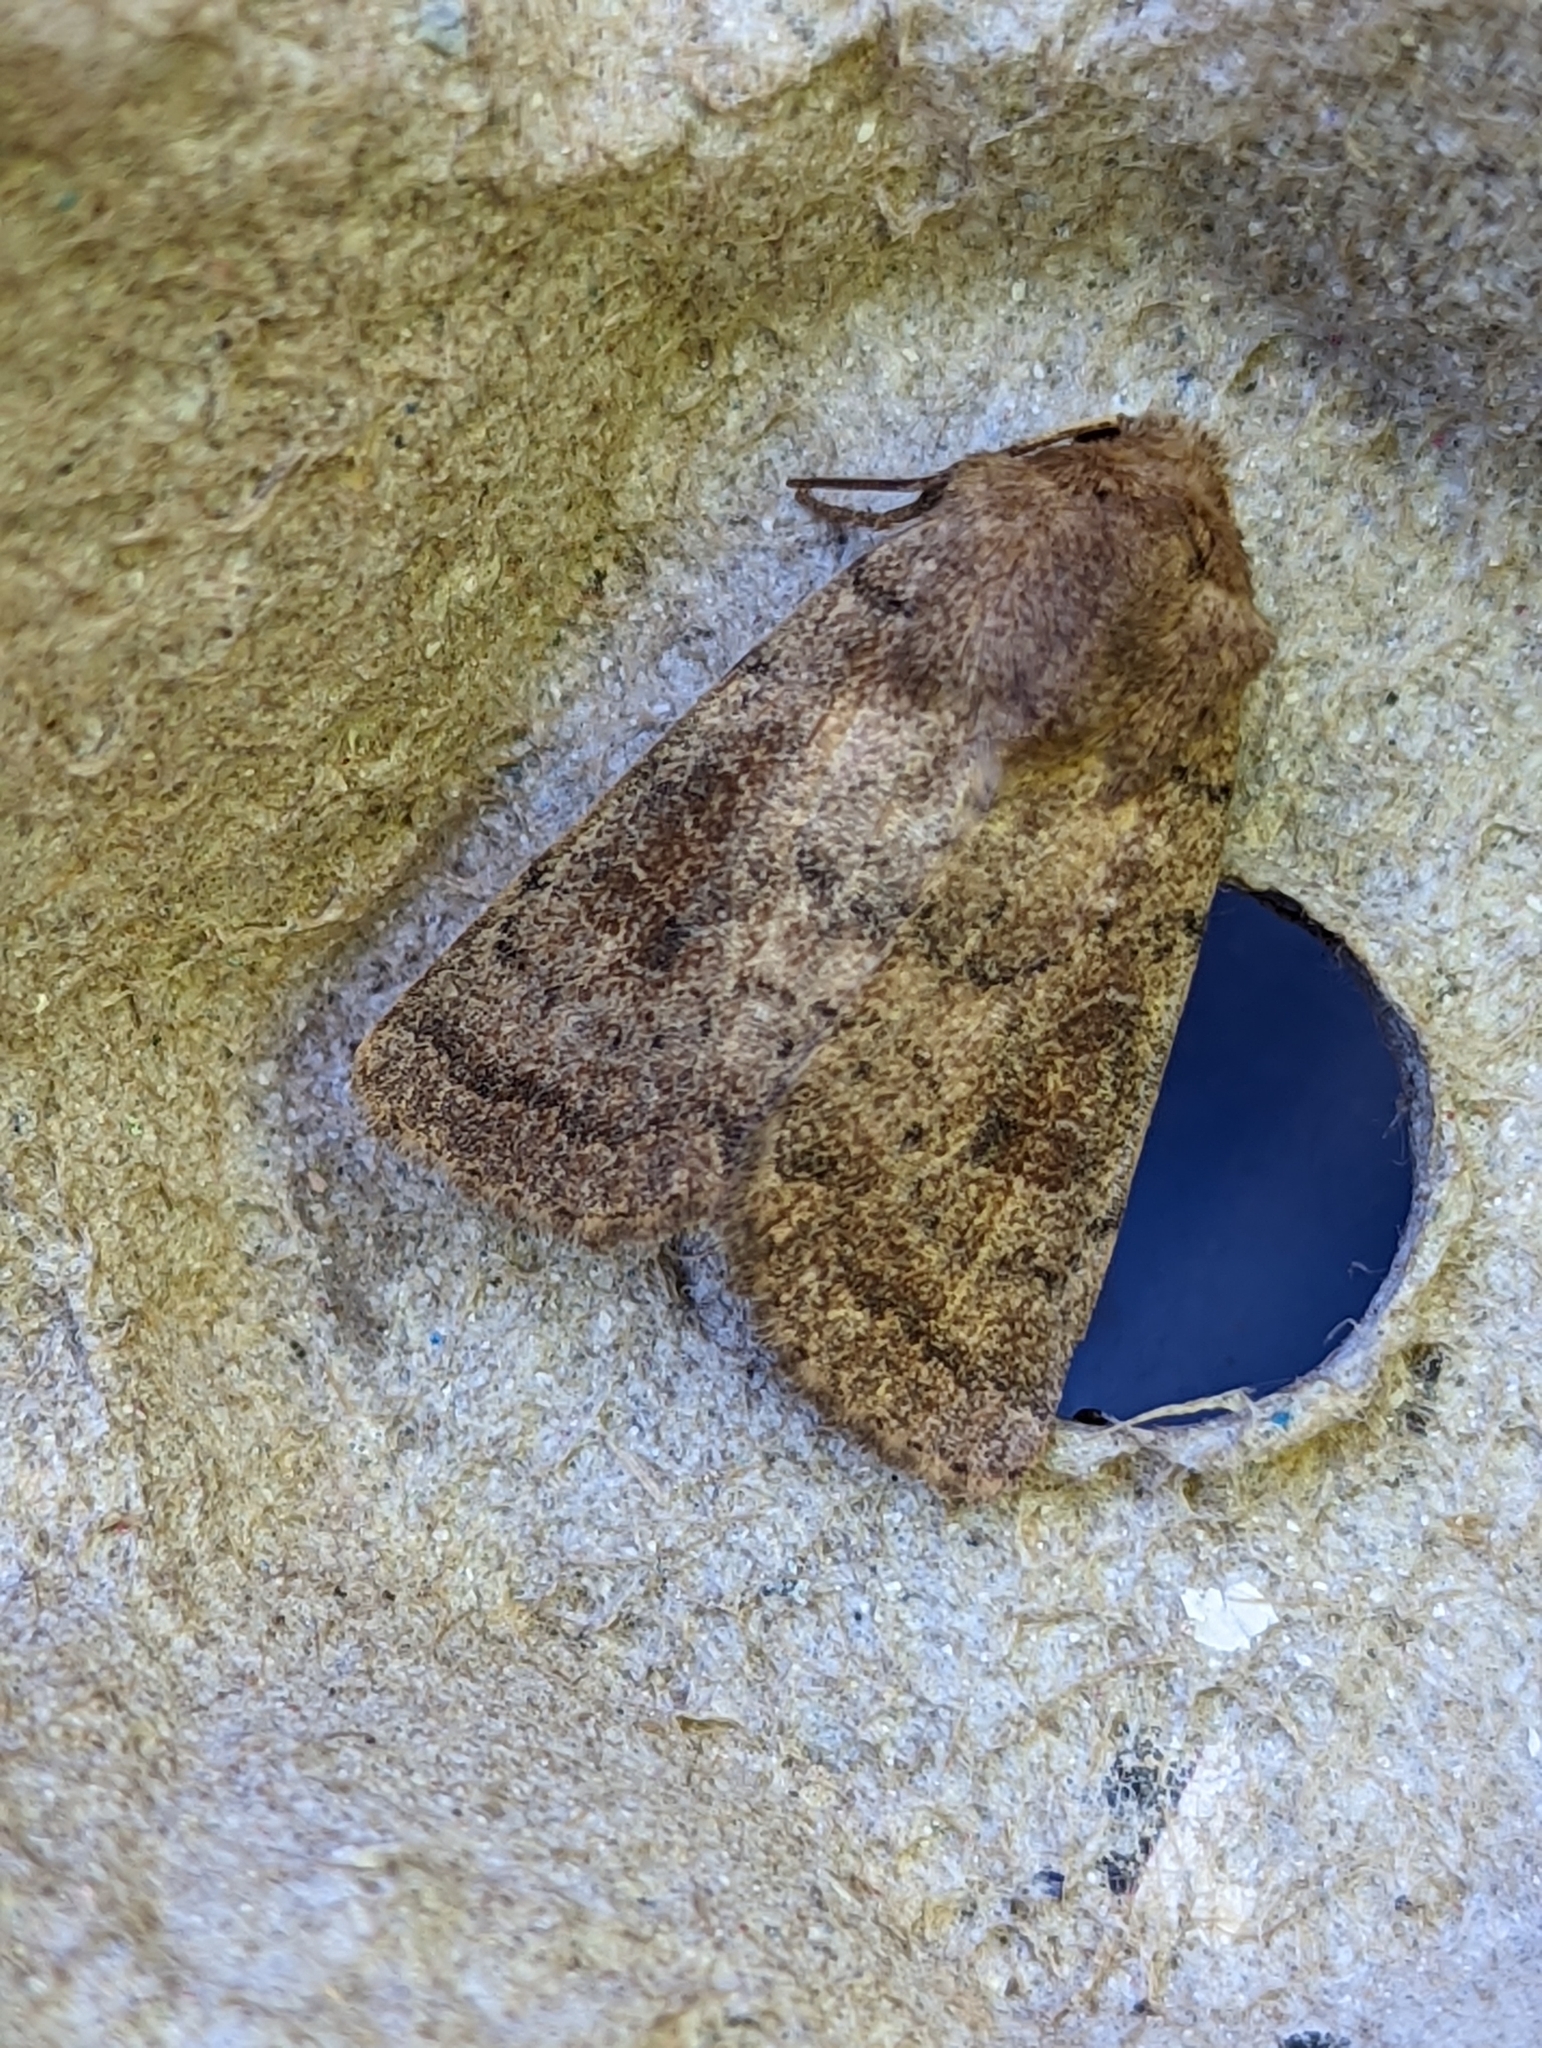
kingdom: Animalia
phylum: Arthropoda
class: Insecta
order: Lepidoptera
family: Noctuidae
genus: Hoplodrina
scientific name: Hoplodrina octogenaria
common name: Uncertain
